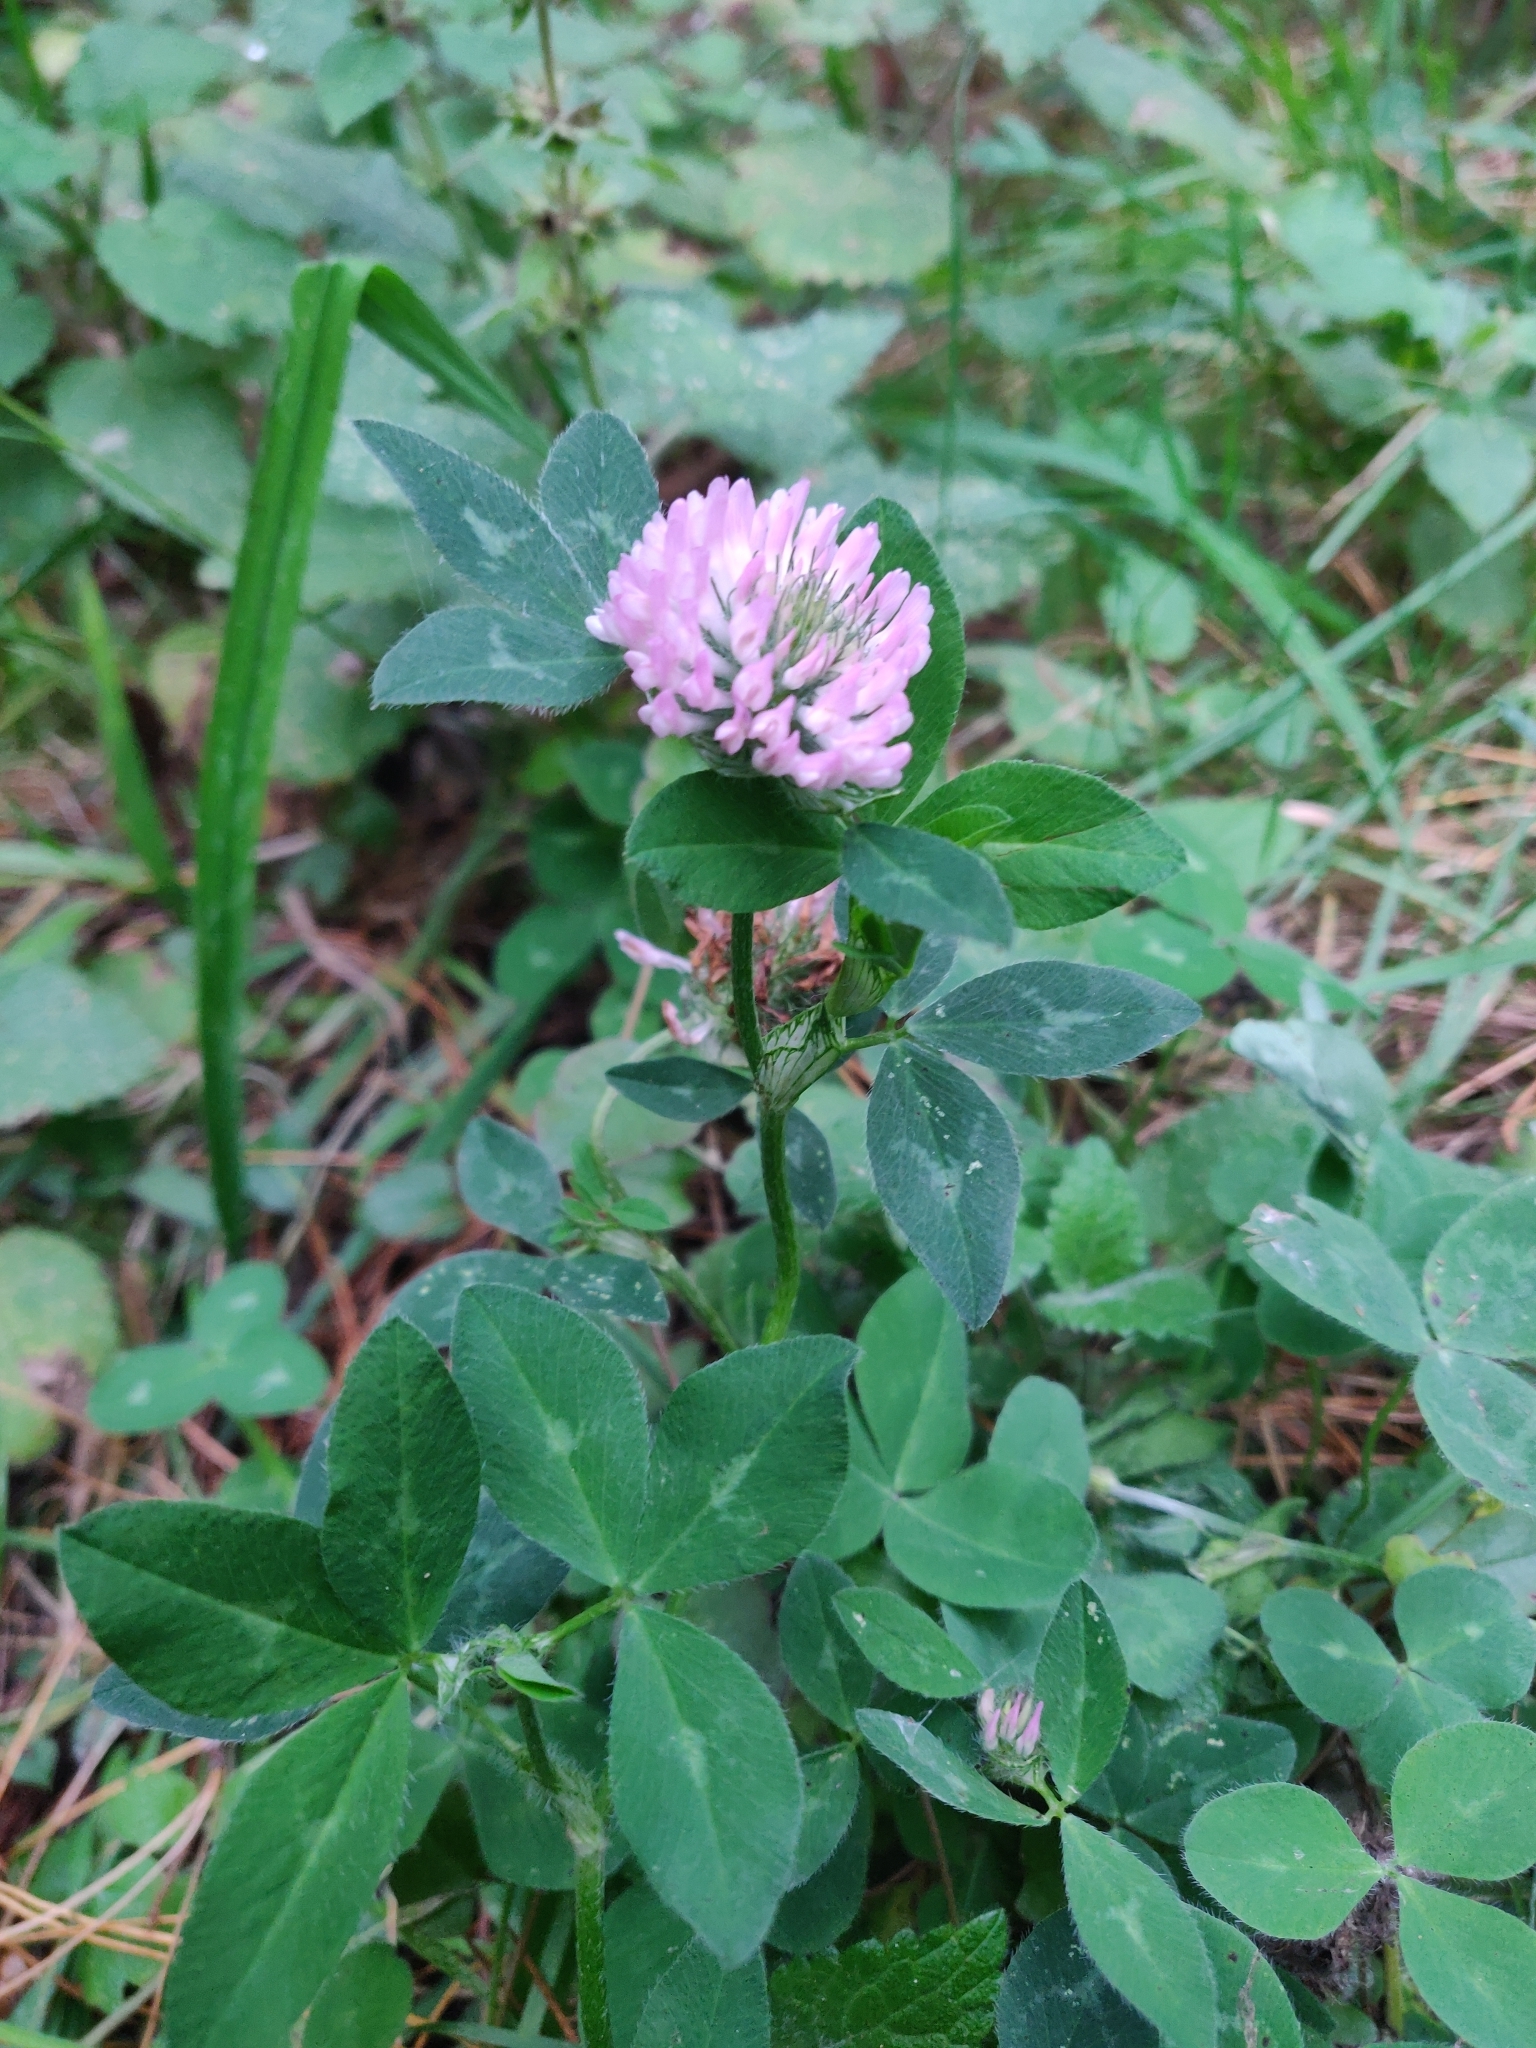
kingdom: Plantae
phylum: Tracheophyta
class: Magnoliopsida
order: Fabales
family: Fabaceae
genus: Trifolium
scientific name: Trifolium pratense
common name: Red clover
